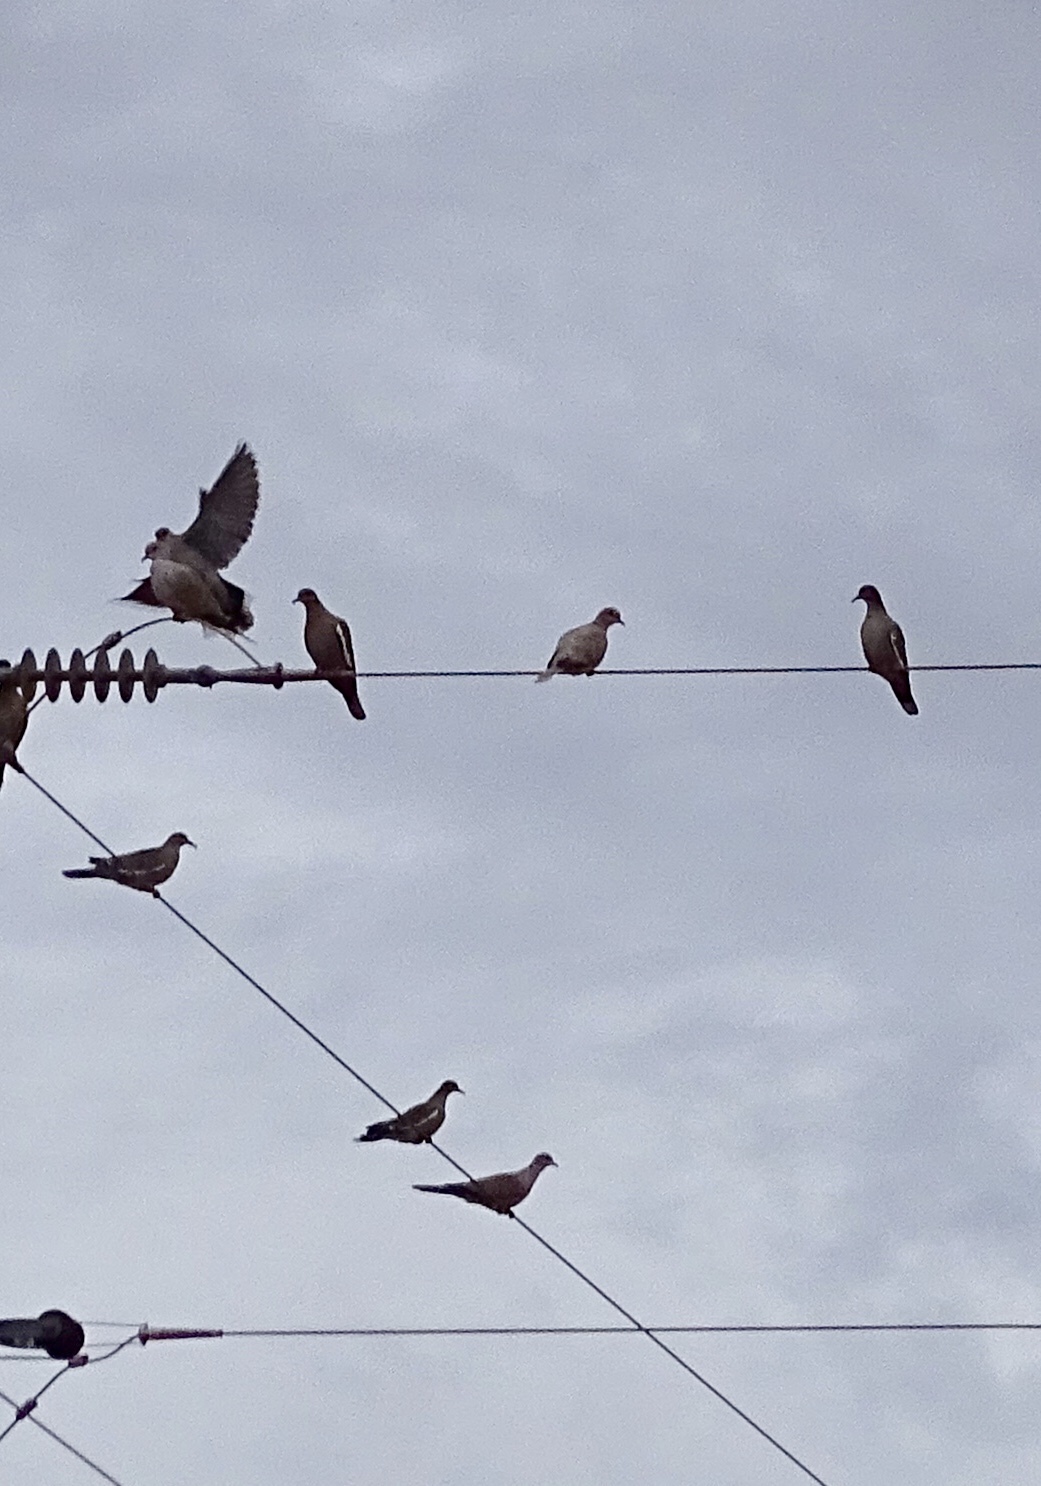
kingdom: Animalia
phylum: Chordata
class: Aves
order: Columbiformes
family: Columbidae
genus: Streptopelia
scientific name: Streptopelia decaocto
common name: Eurasian collared dove
